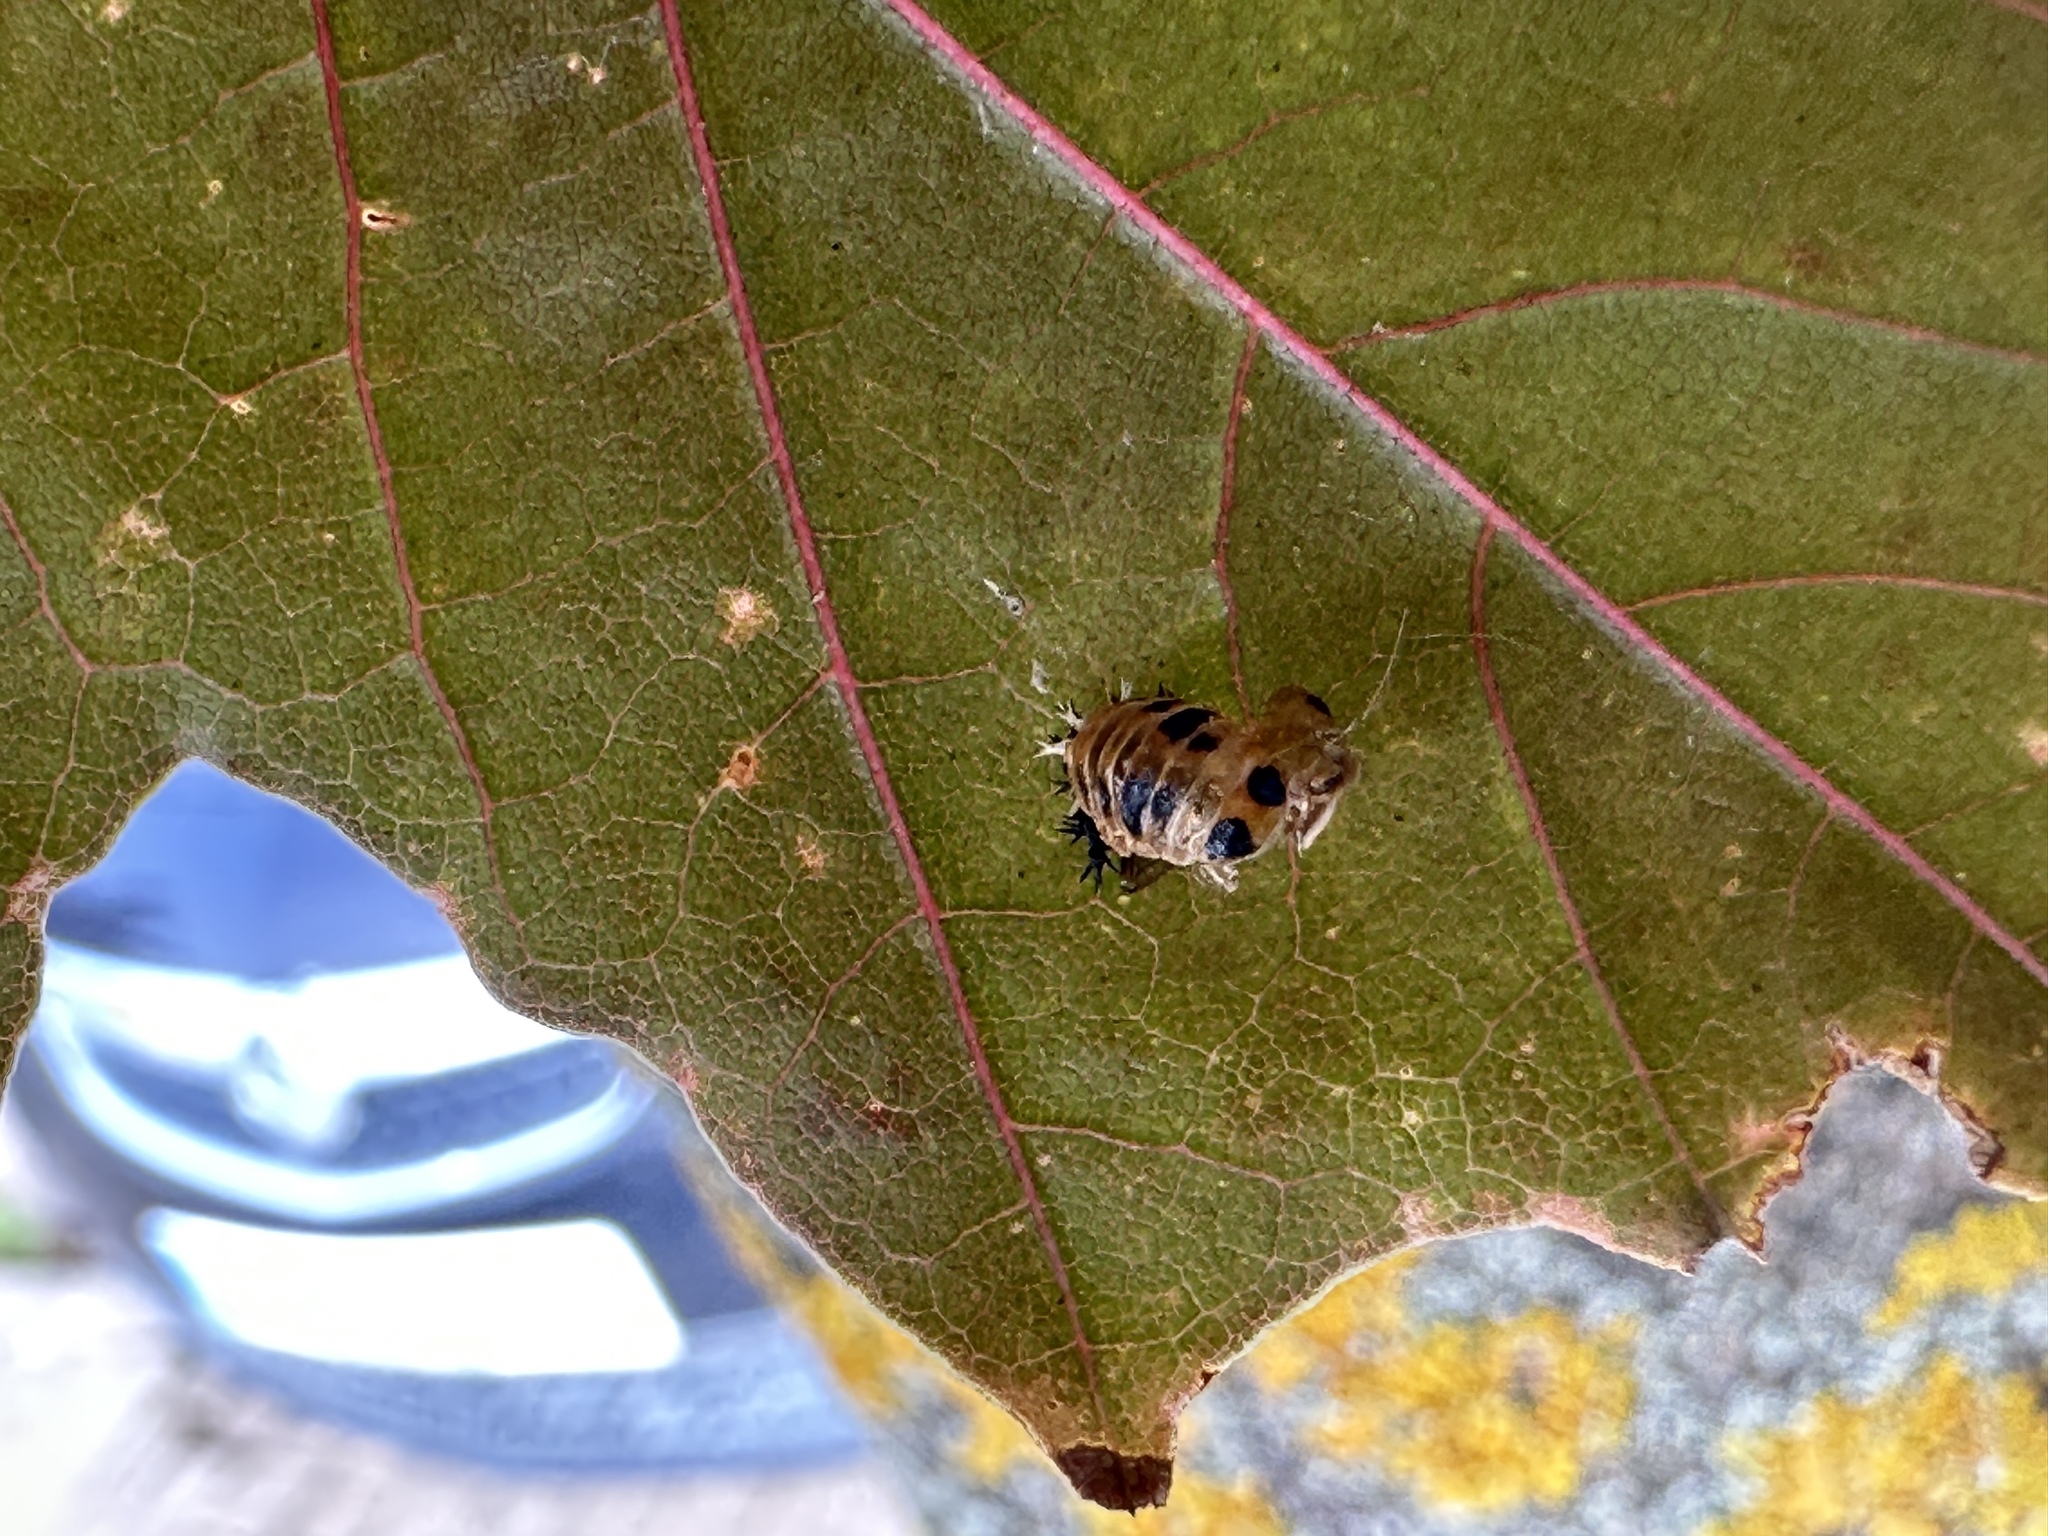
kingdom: Animalia
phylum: Arthropoda
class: Insecta
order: Coleoptera
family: Coccinellidae
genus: Harmonia
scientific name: Harmonia axyridis
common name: Harlequin ladybird
